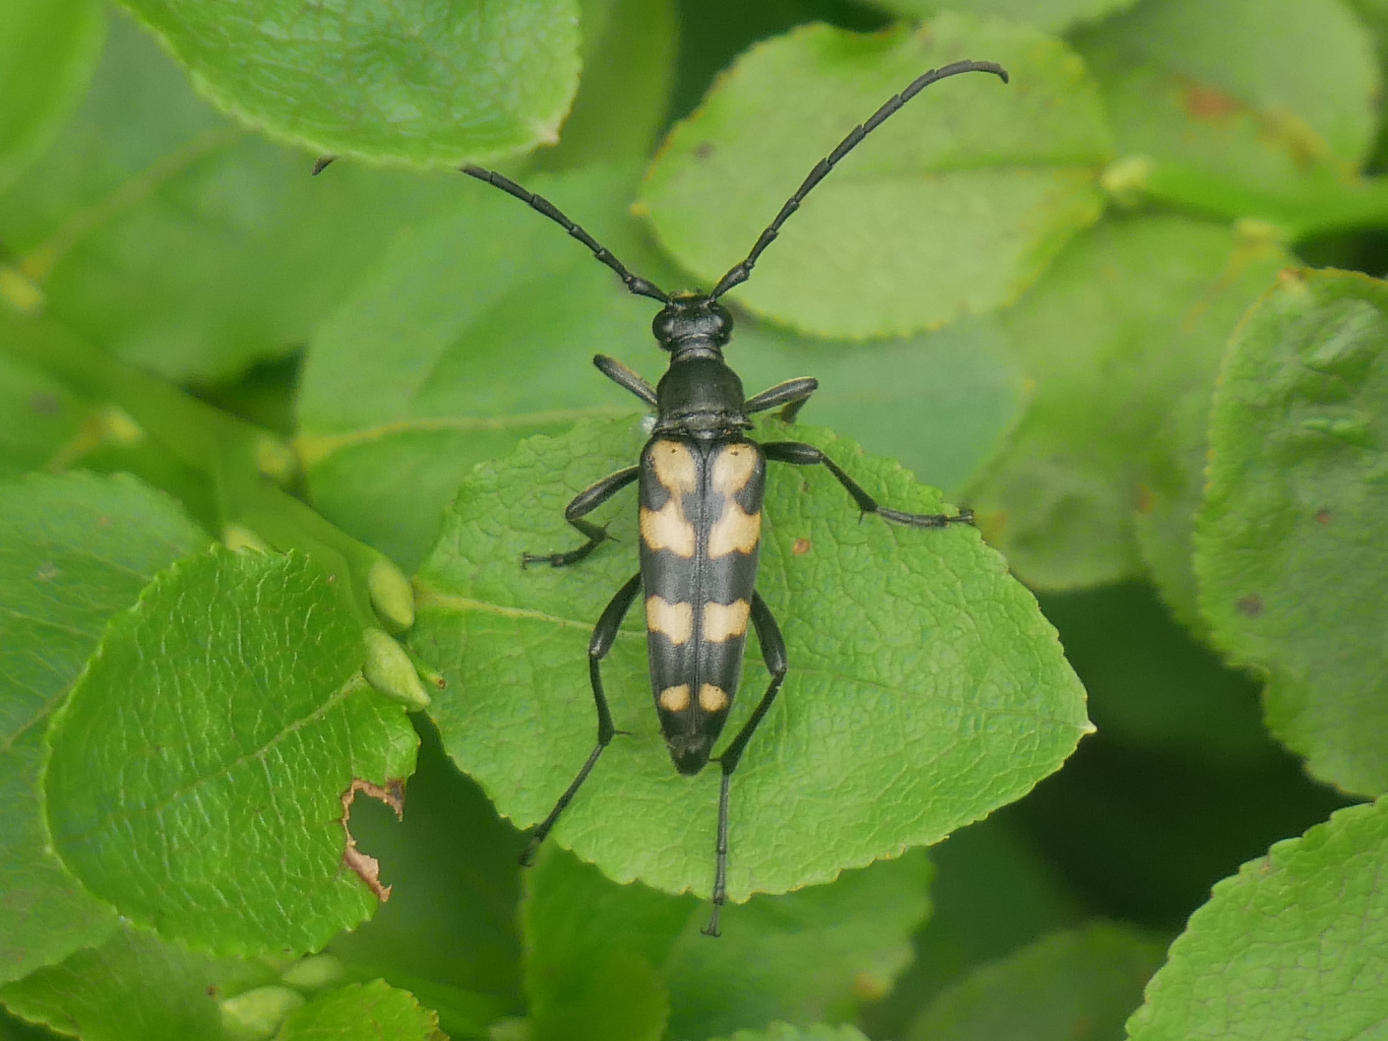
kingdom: Animalia
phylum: Arthropoda
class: Insecta
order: Coleoptera
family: Cerambycidae
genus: Leptura
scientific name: Leptura quadrifasciata
